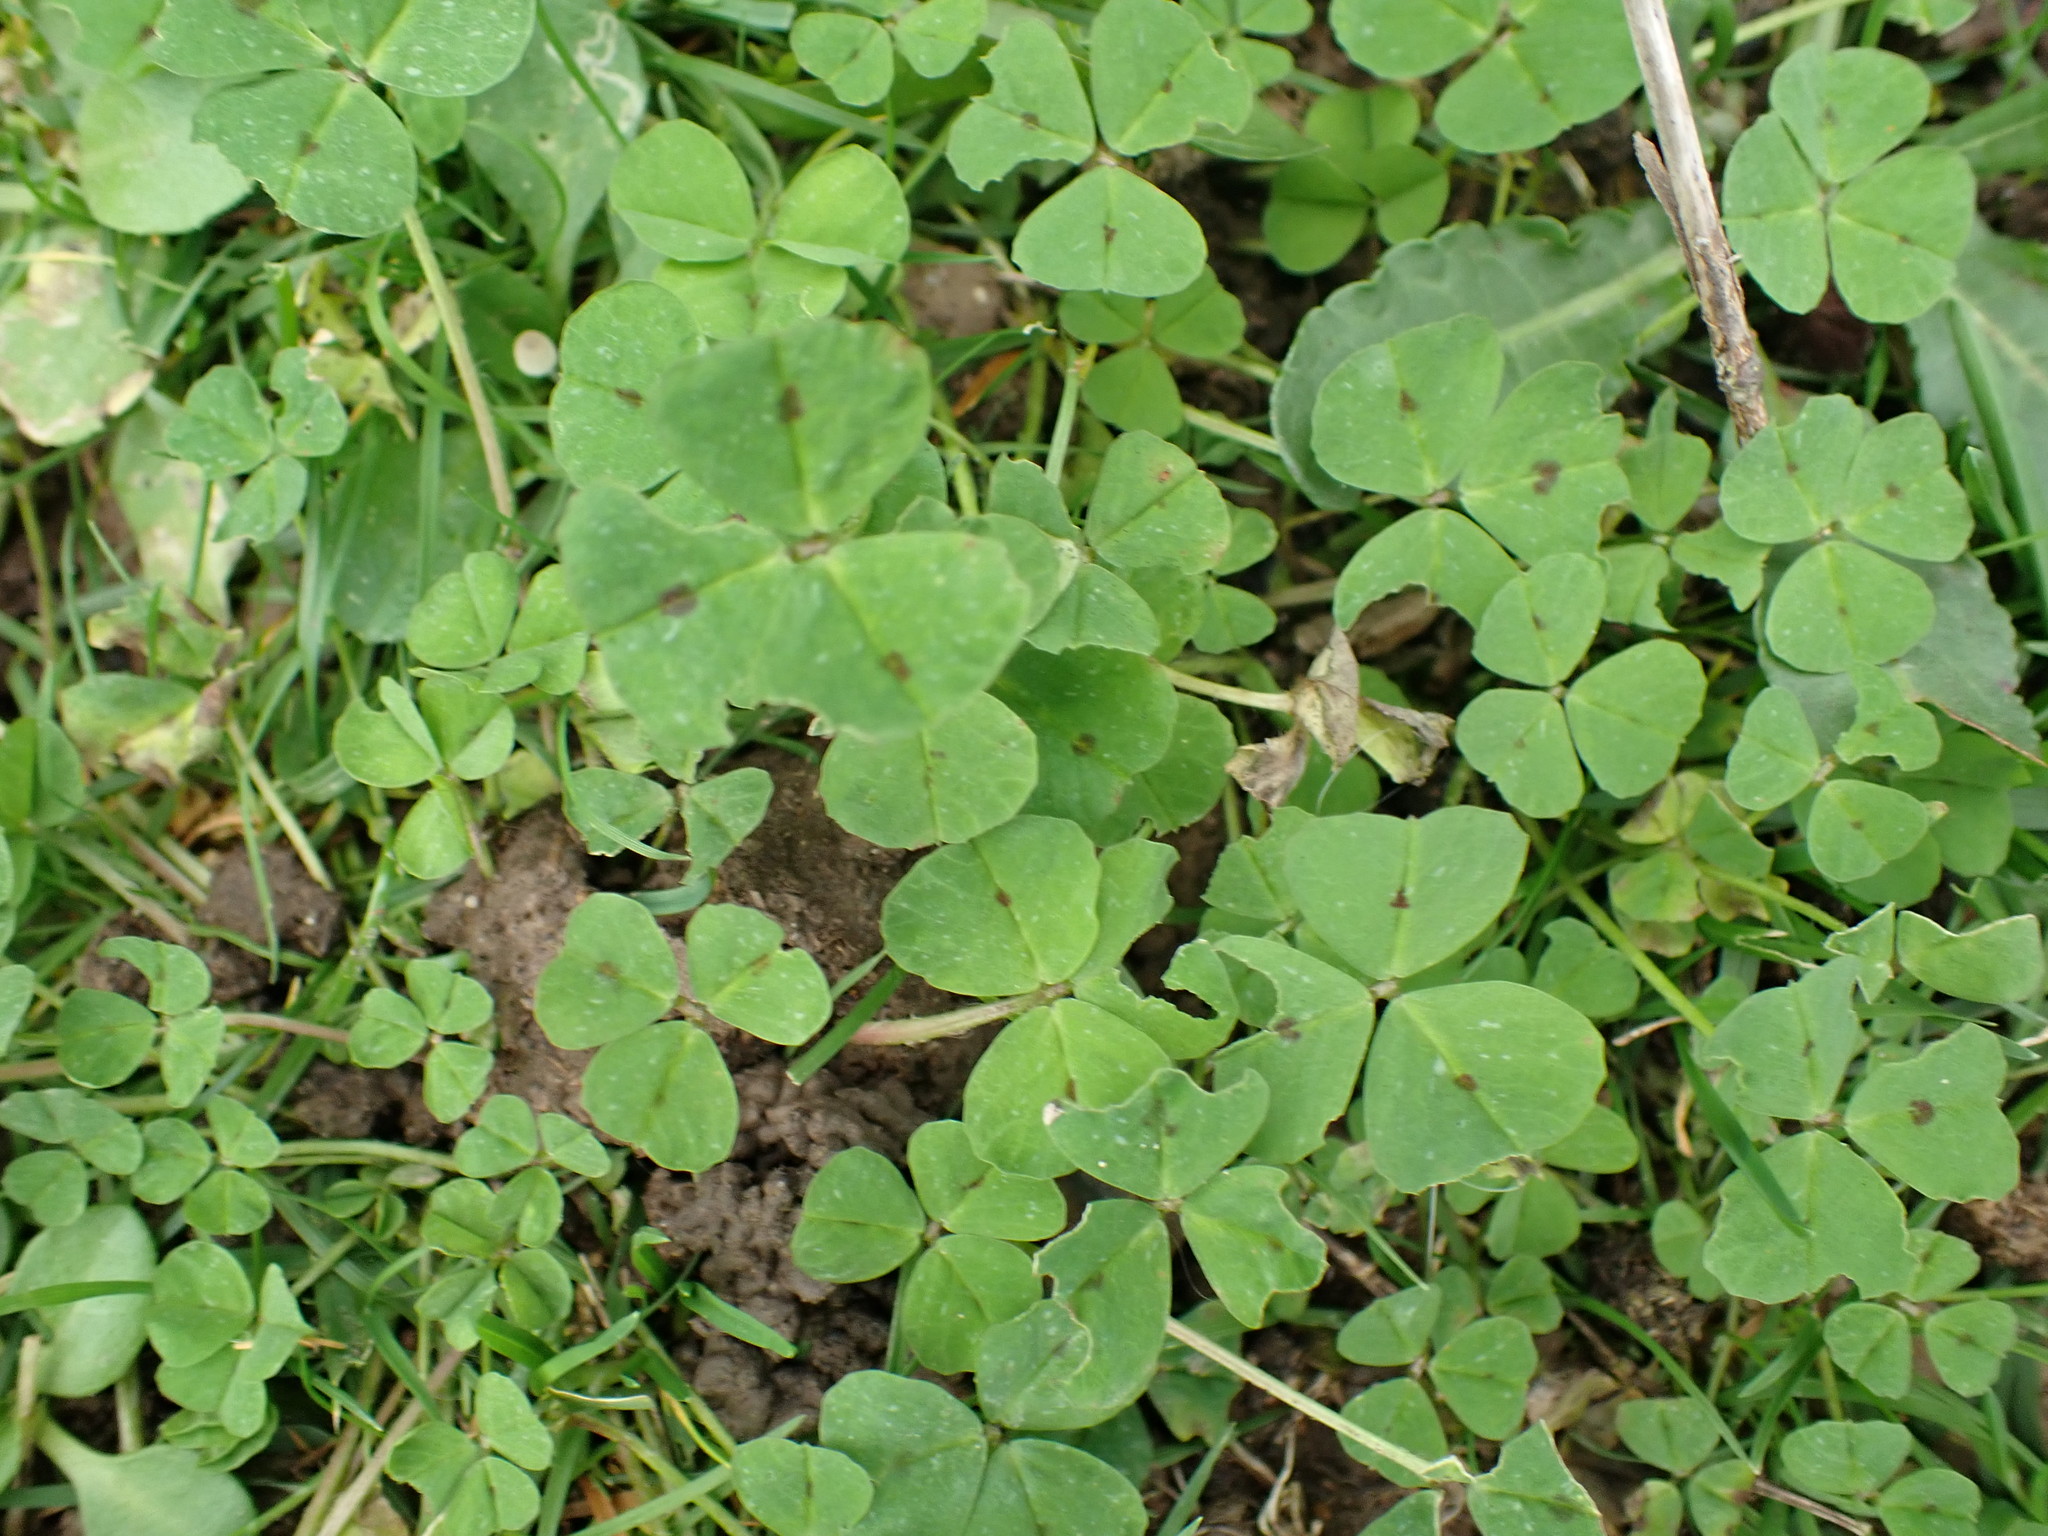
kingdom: Plantae
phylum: Tracheophyta
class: Magnoliopsida
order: Fabales
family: Fabaceae
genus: Medicago
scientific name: Medicago arabica
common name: Spotted medick
